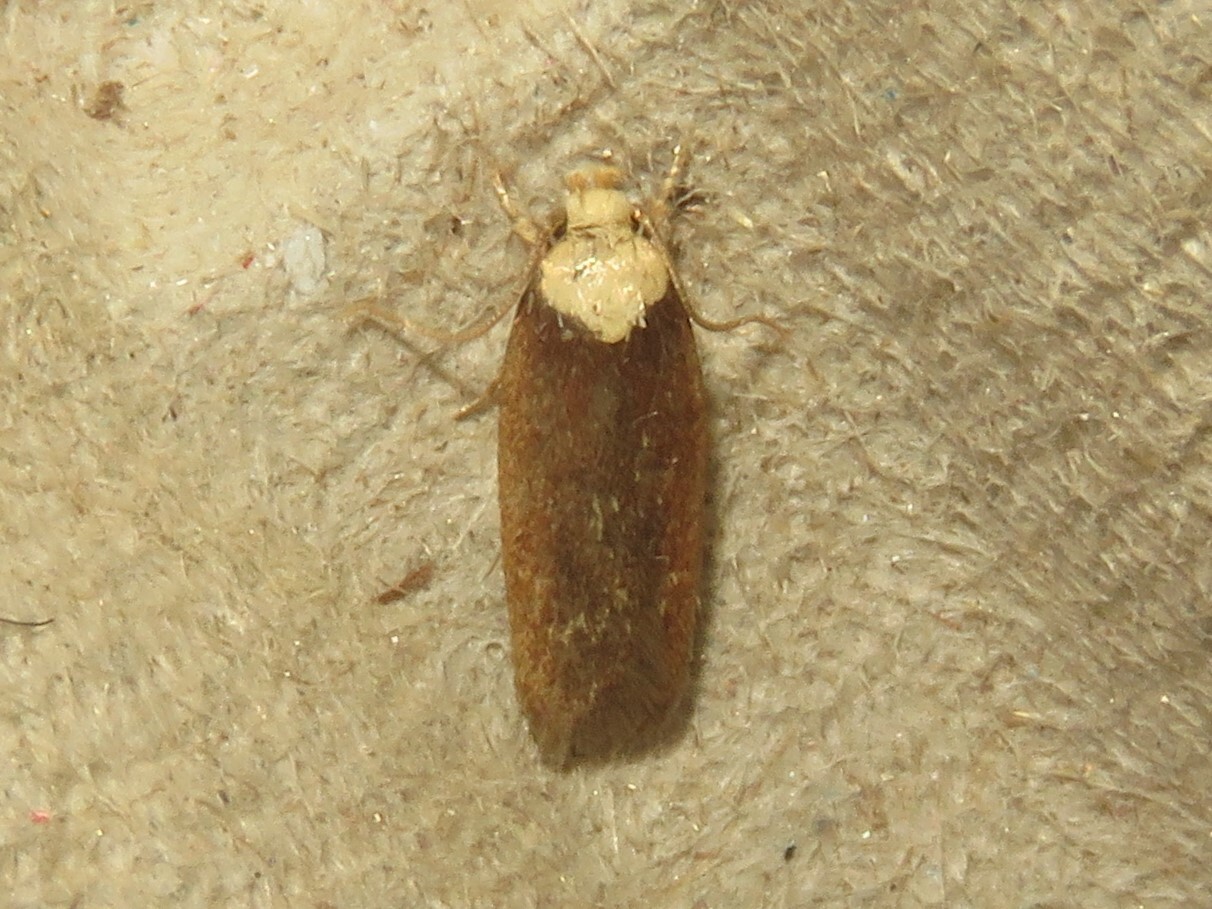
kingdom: Animalia
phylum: Arthropoda
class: Insecta
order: Lepidoptera
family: Depressariidae
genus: Depressaria
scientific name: Depressaria depressana
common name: Lost flat-body
